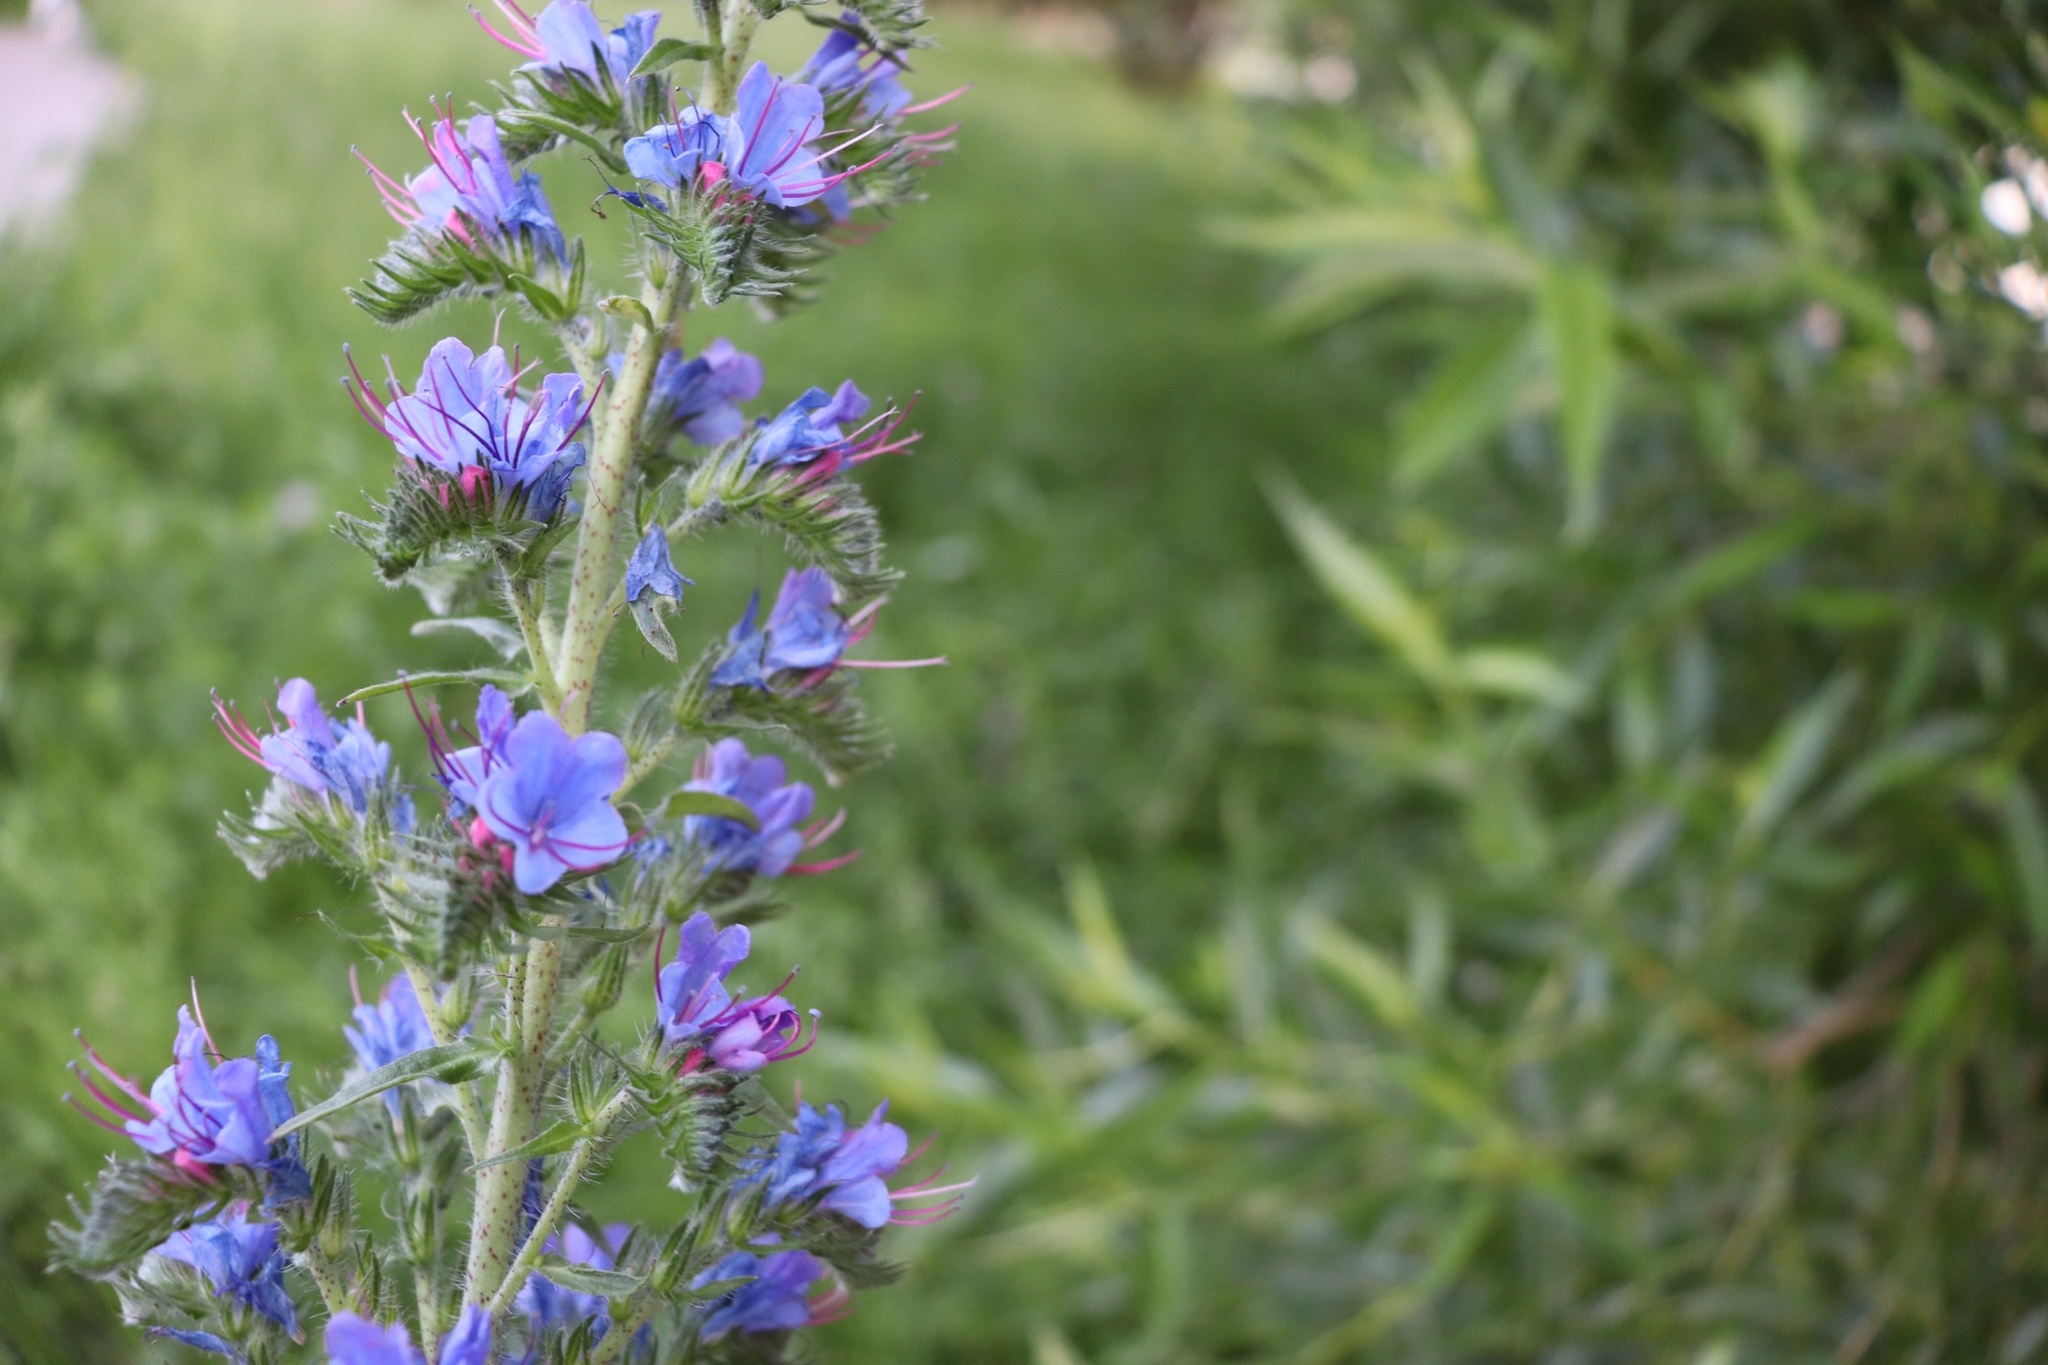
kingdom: Plantae
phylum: Tracheophyta
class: Magnoliopsida
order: Boraginales
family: Boraginaceae
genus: Echium
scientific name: Echium vulgare
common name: Common viper's bugloss
